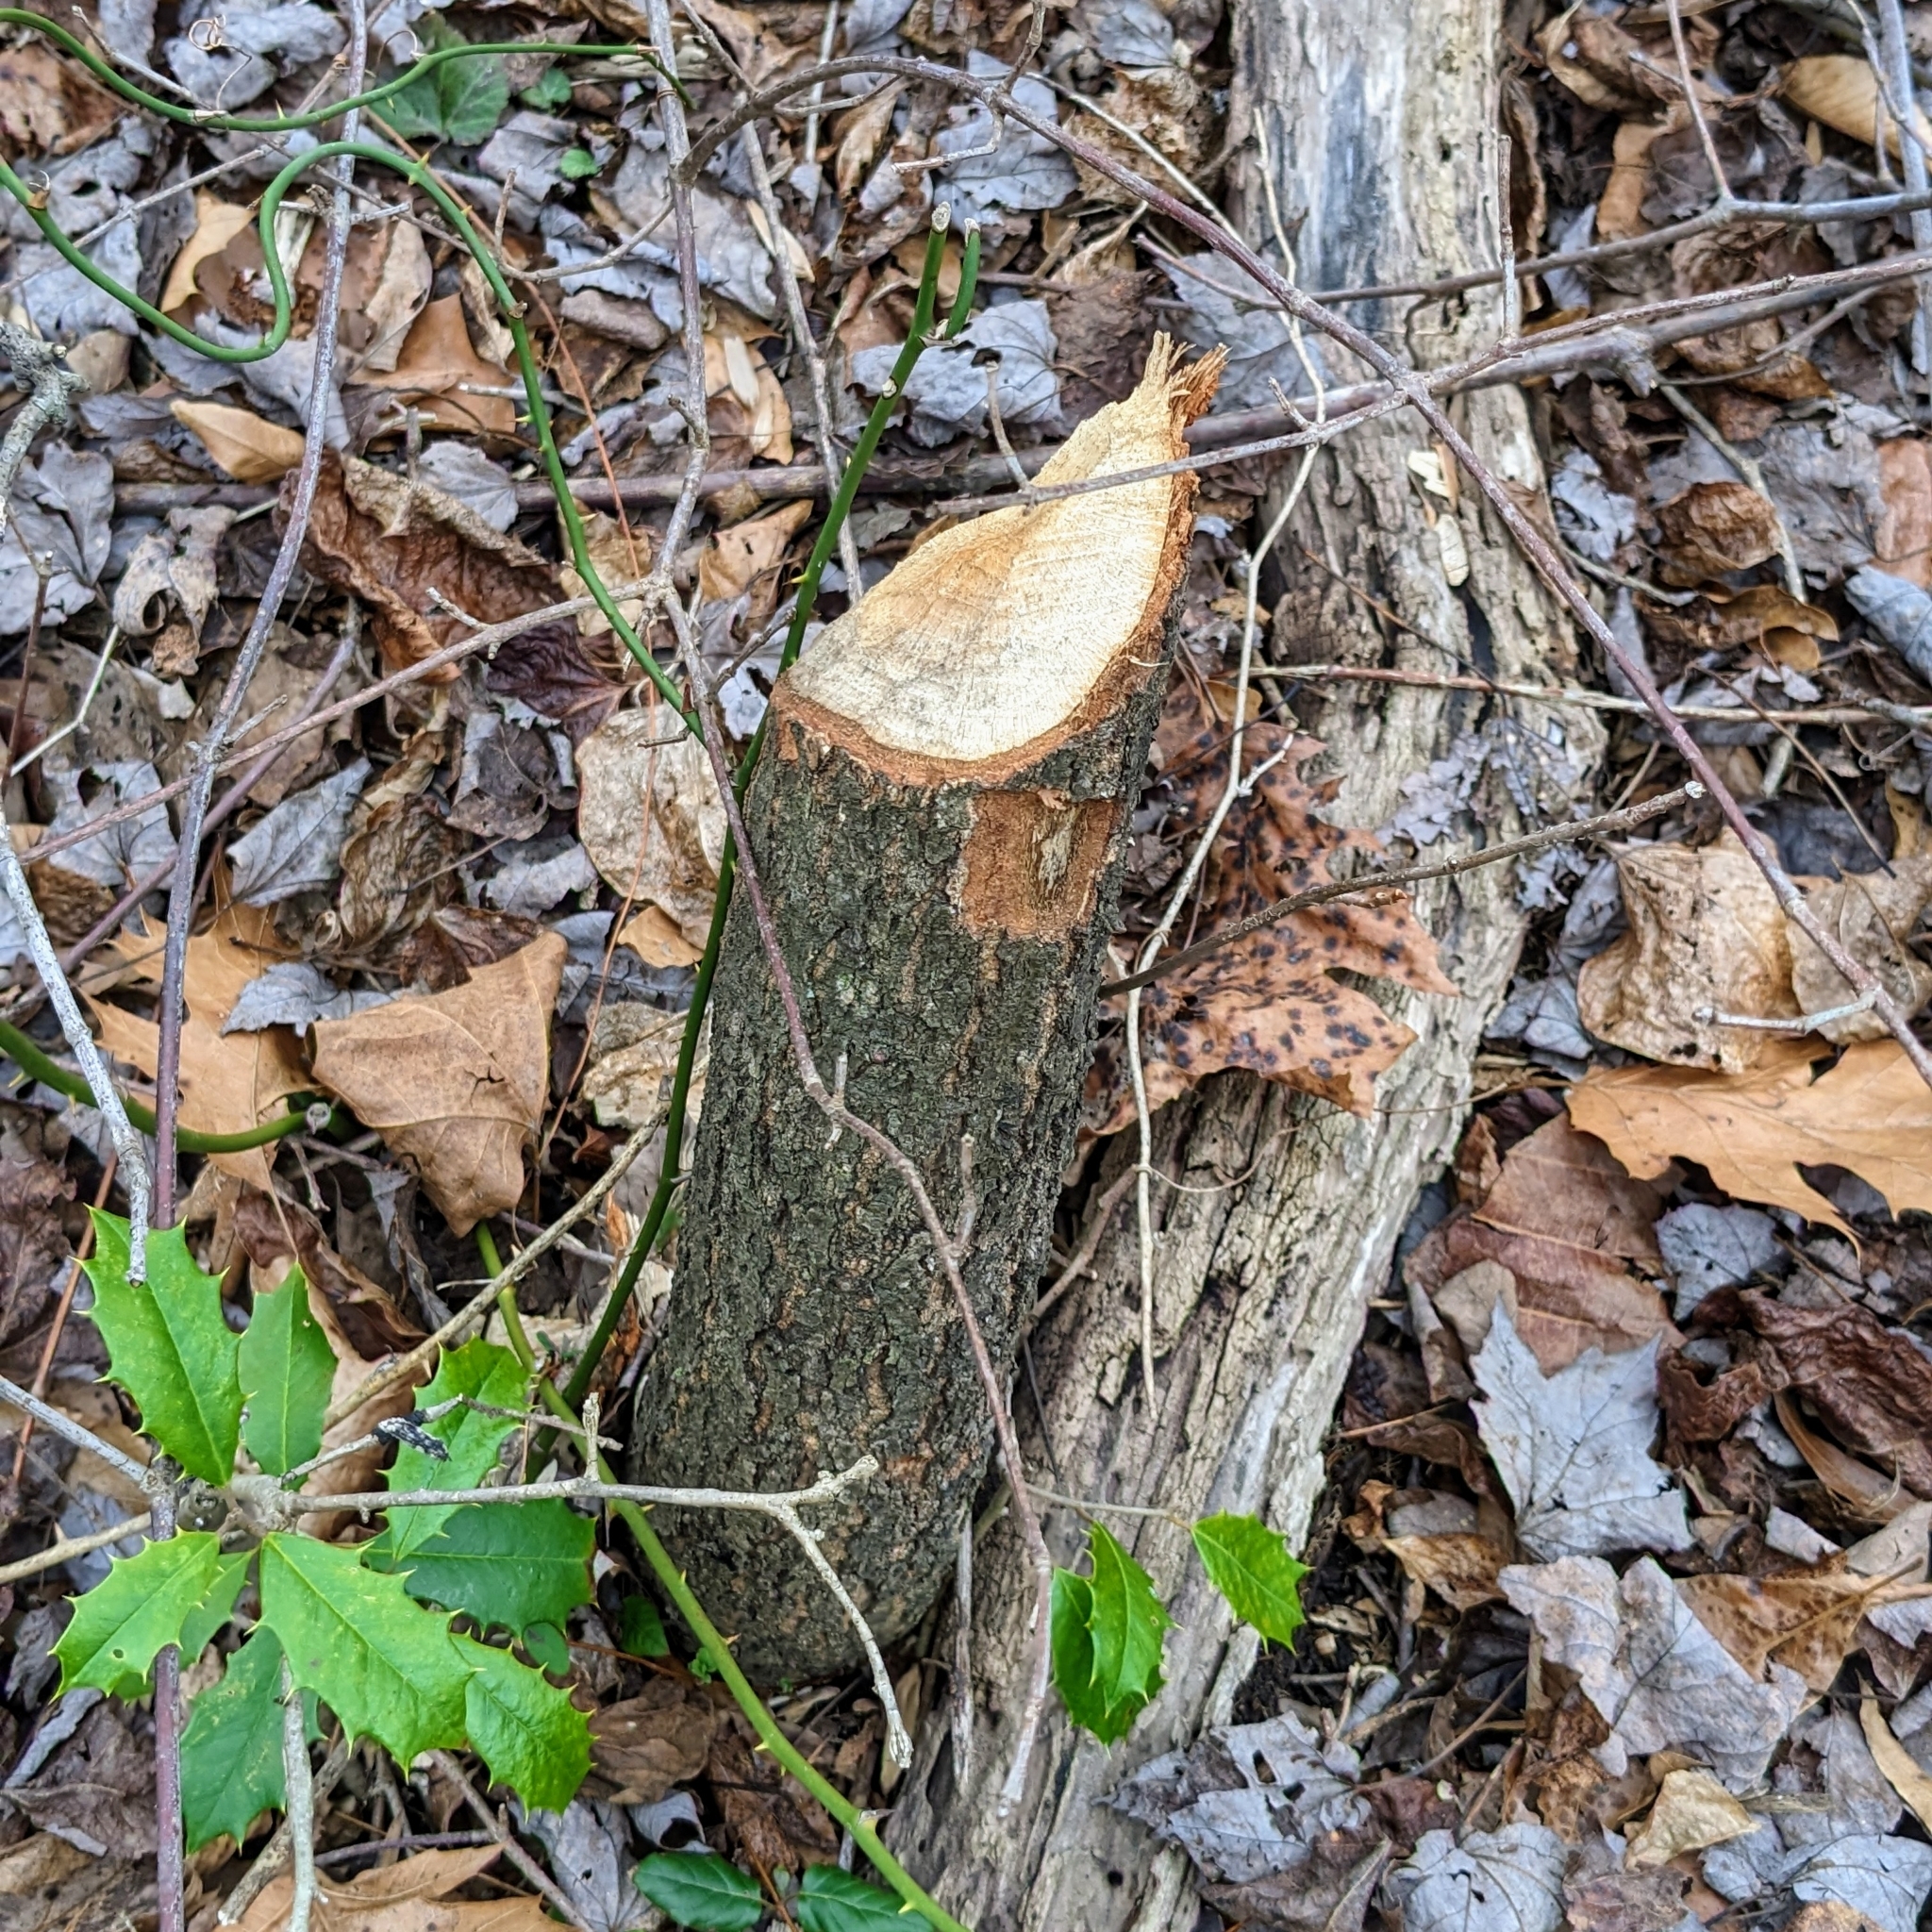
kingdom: Animalia
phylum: Chordata
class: Mammalia
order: Rodentia
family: Castoridae
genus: Castor
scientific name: Castor canadensis
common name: American beaver
